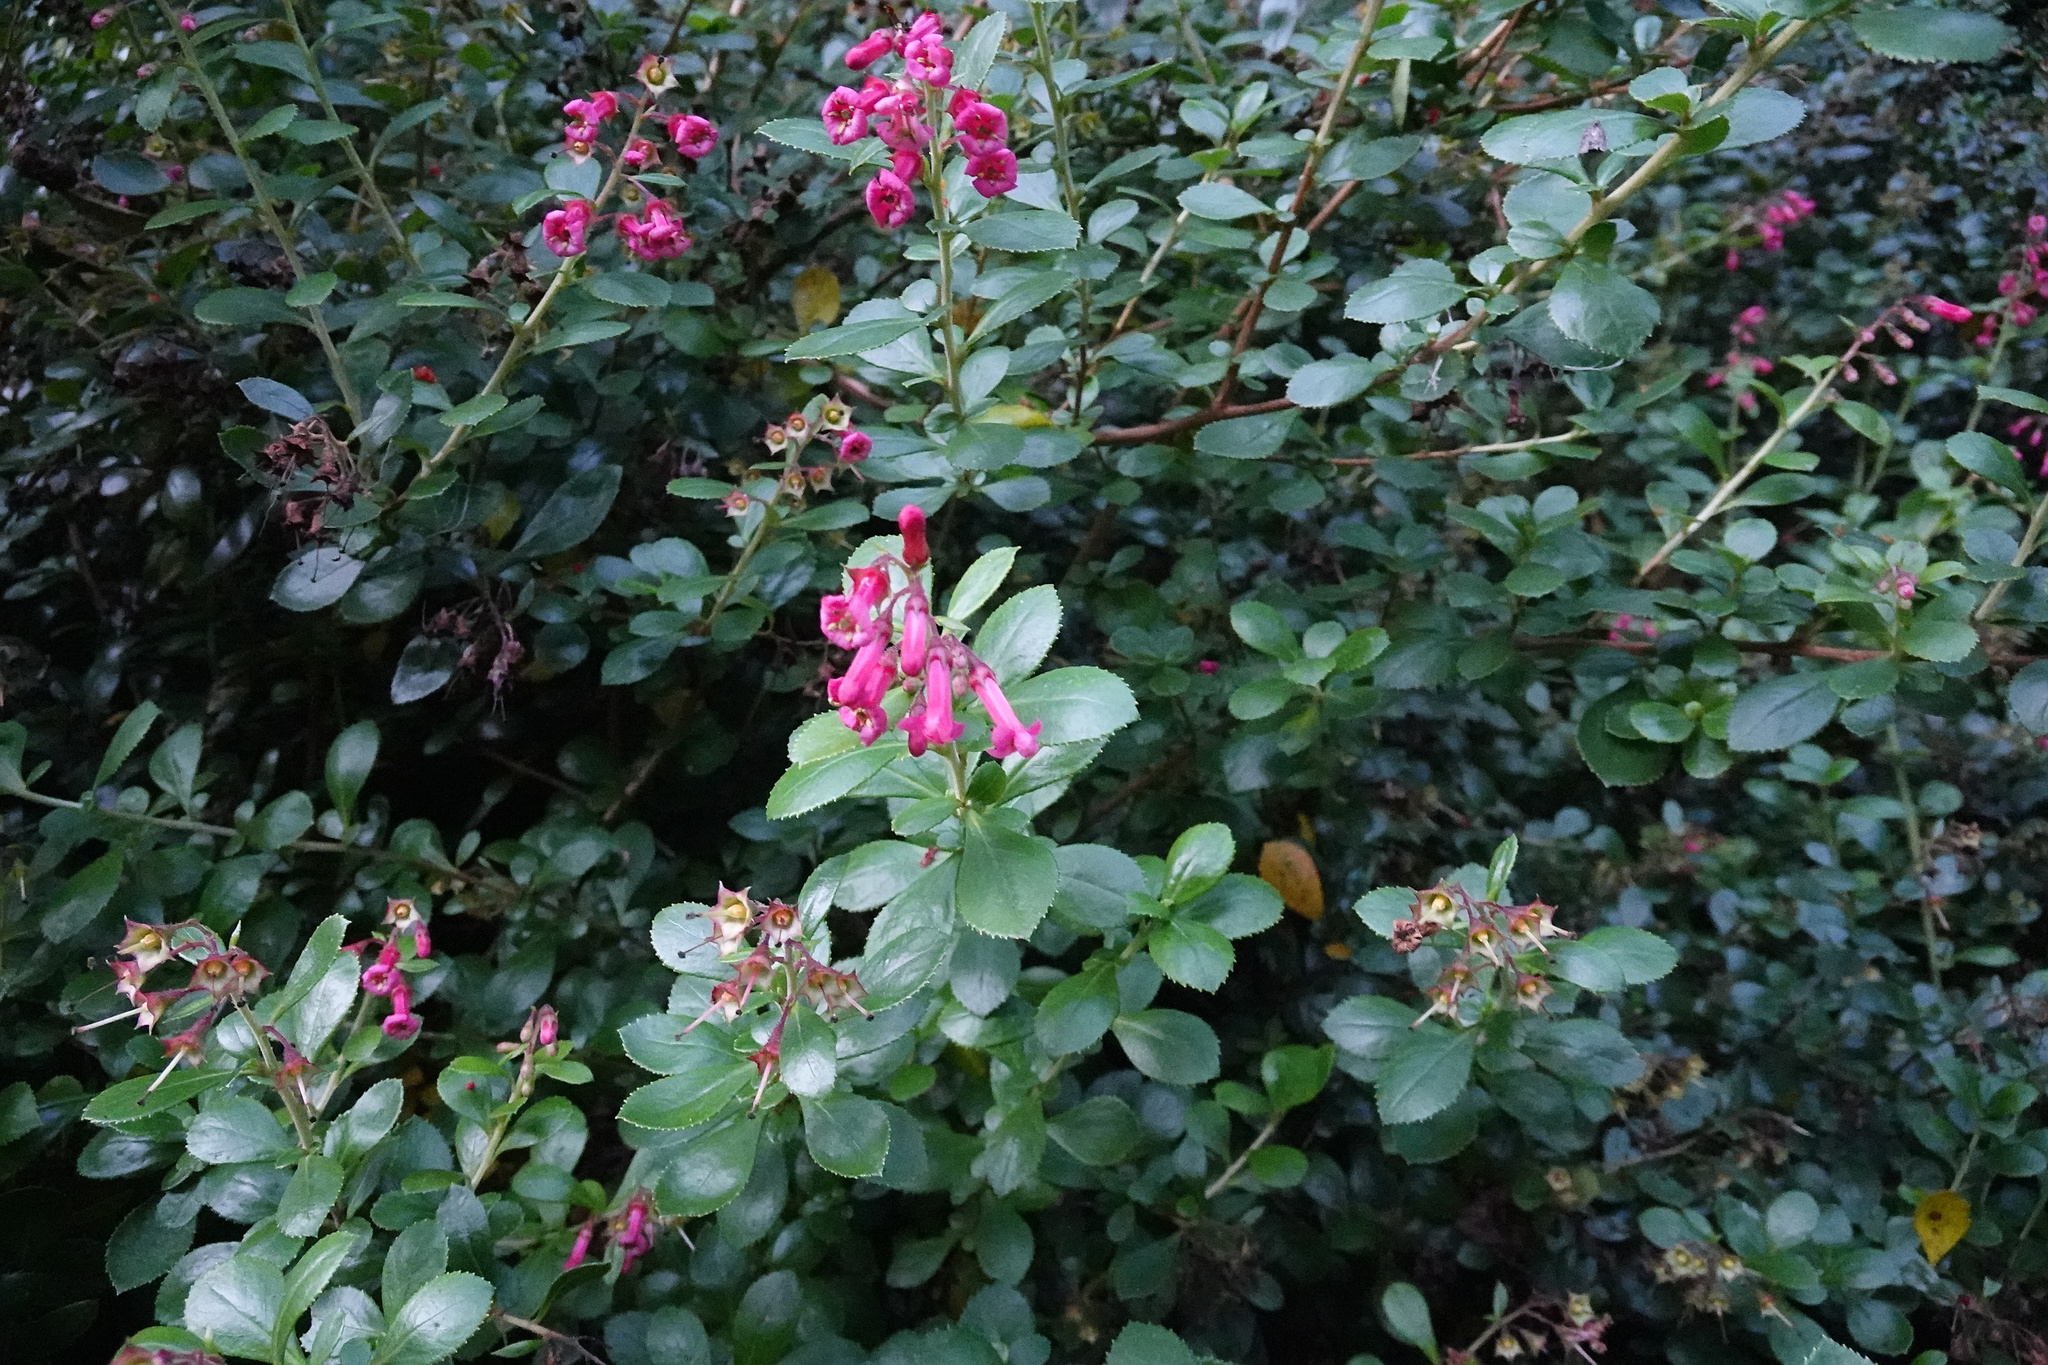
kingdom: Plantae
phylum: Tracheophyta
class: Magnoliopsida
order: Escalloniales
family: Escalloniaceae
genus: Escallonia
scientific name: Escallonia rubra
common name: Redclaws
